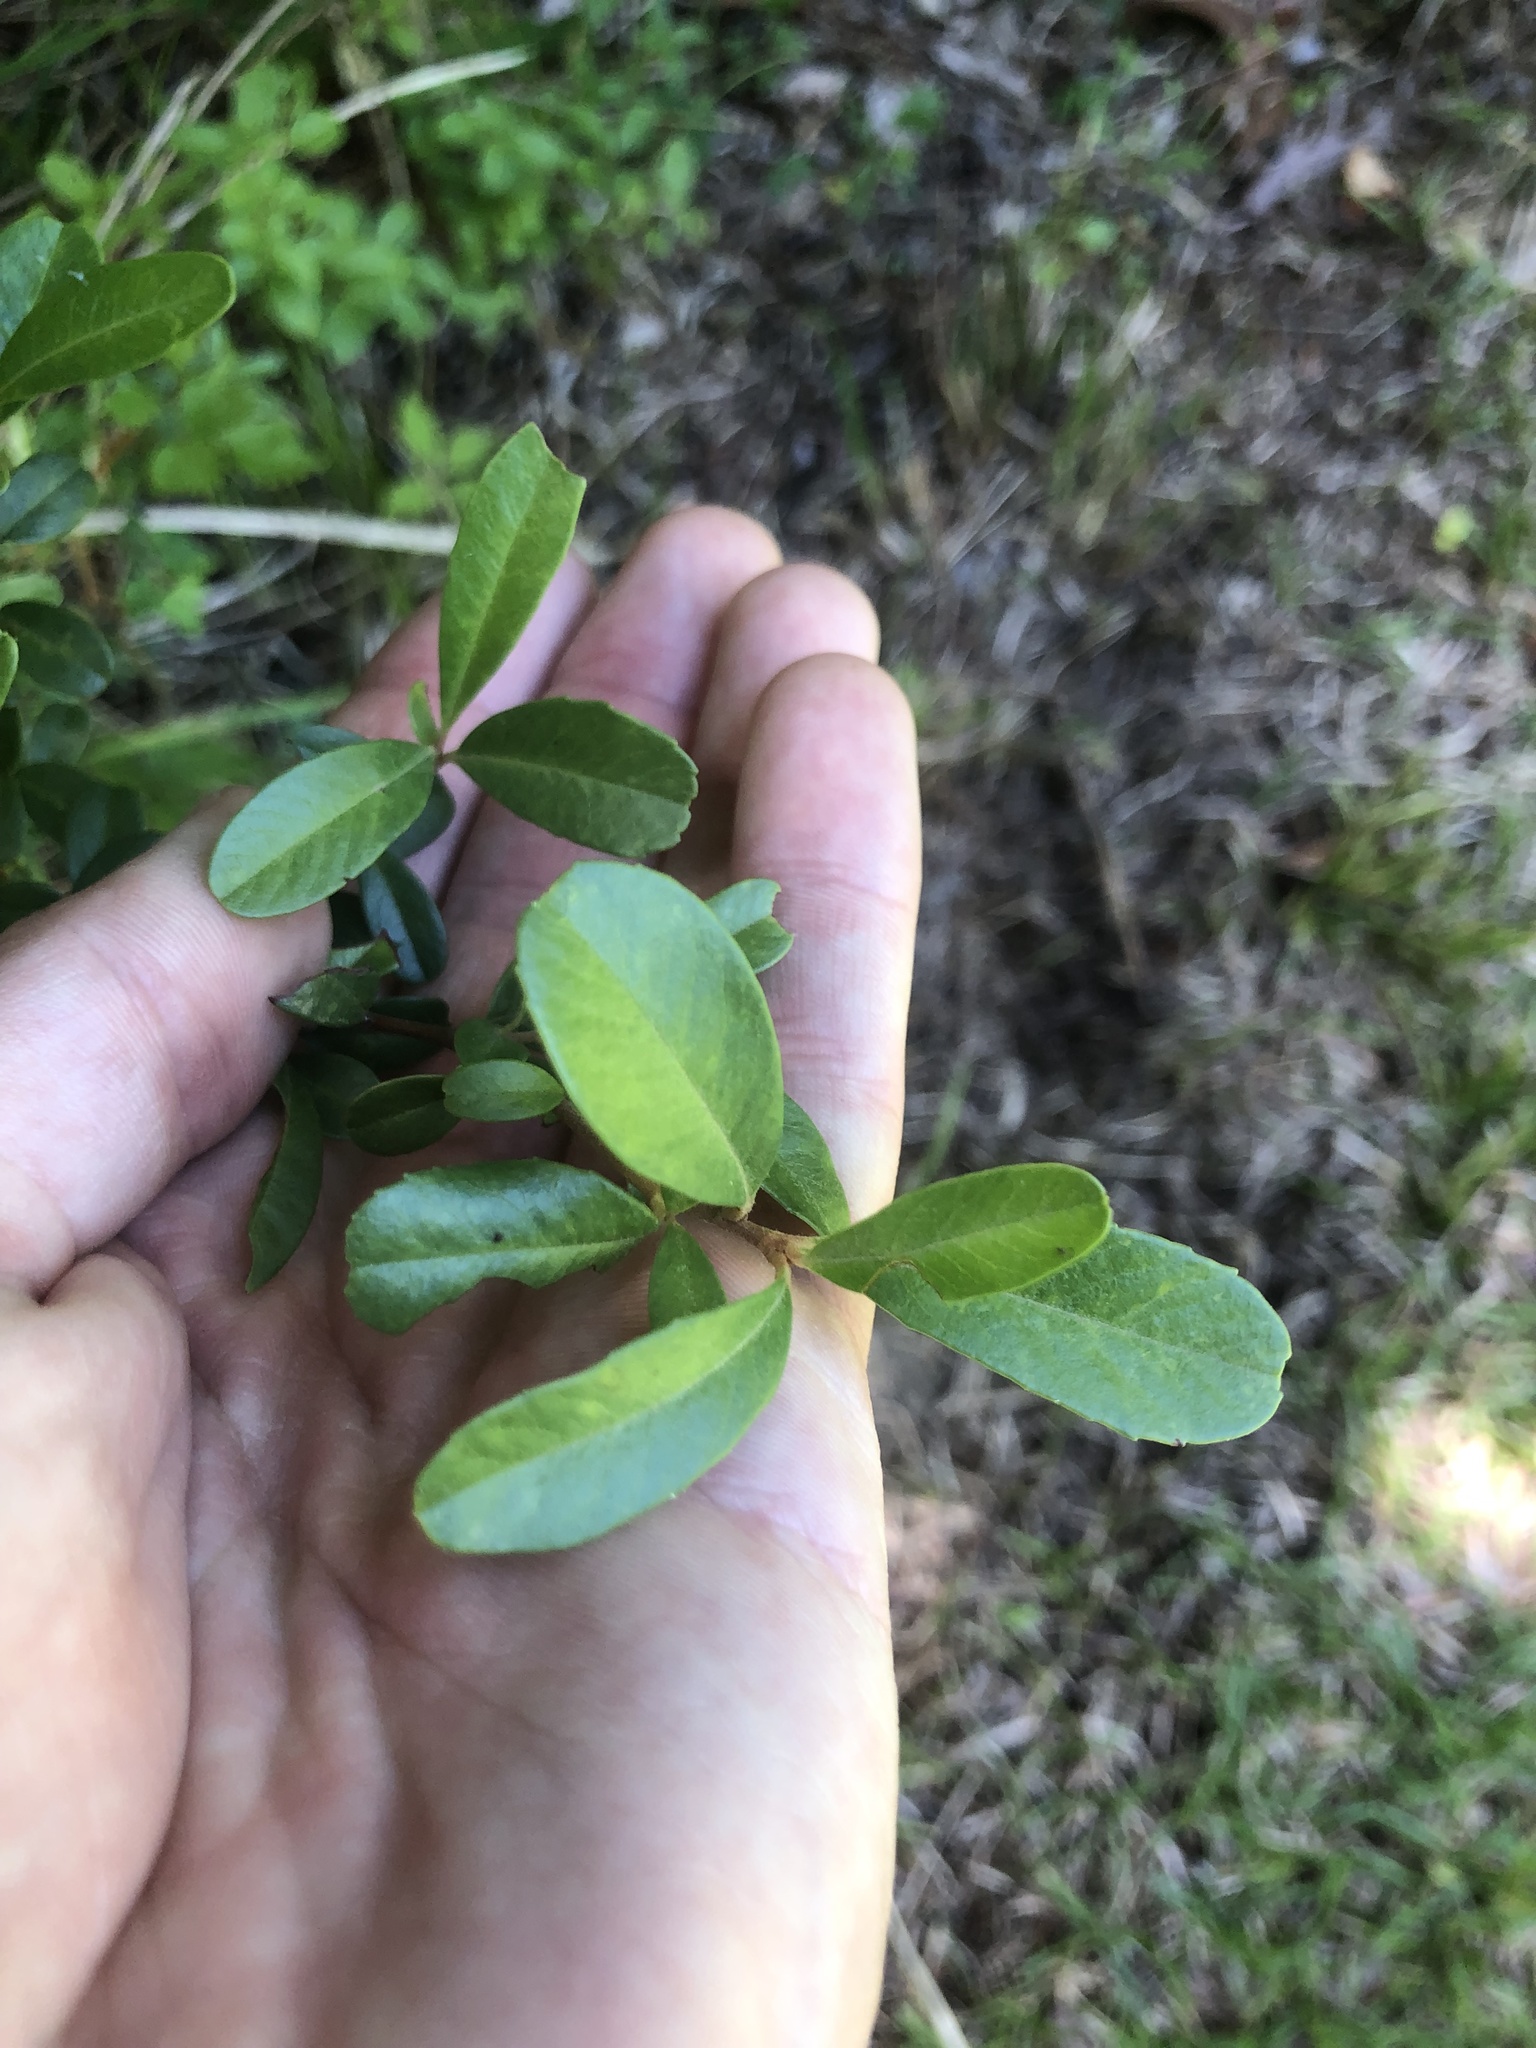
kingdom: Plantae
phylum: Tracheophyta
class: Magnoliopsida
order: Rosales
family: Rosaceae
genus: Pyracantha
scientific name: Pyracantha koidzumii
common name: Formosa firethorn
